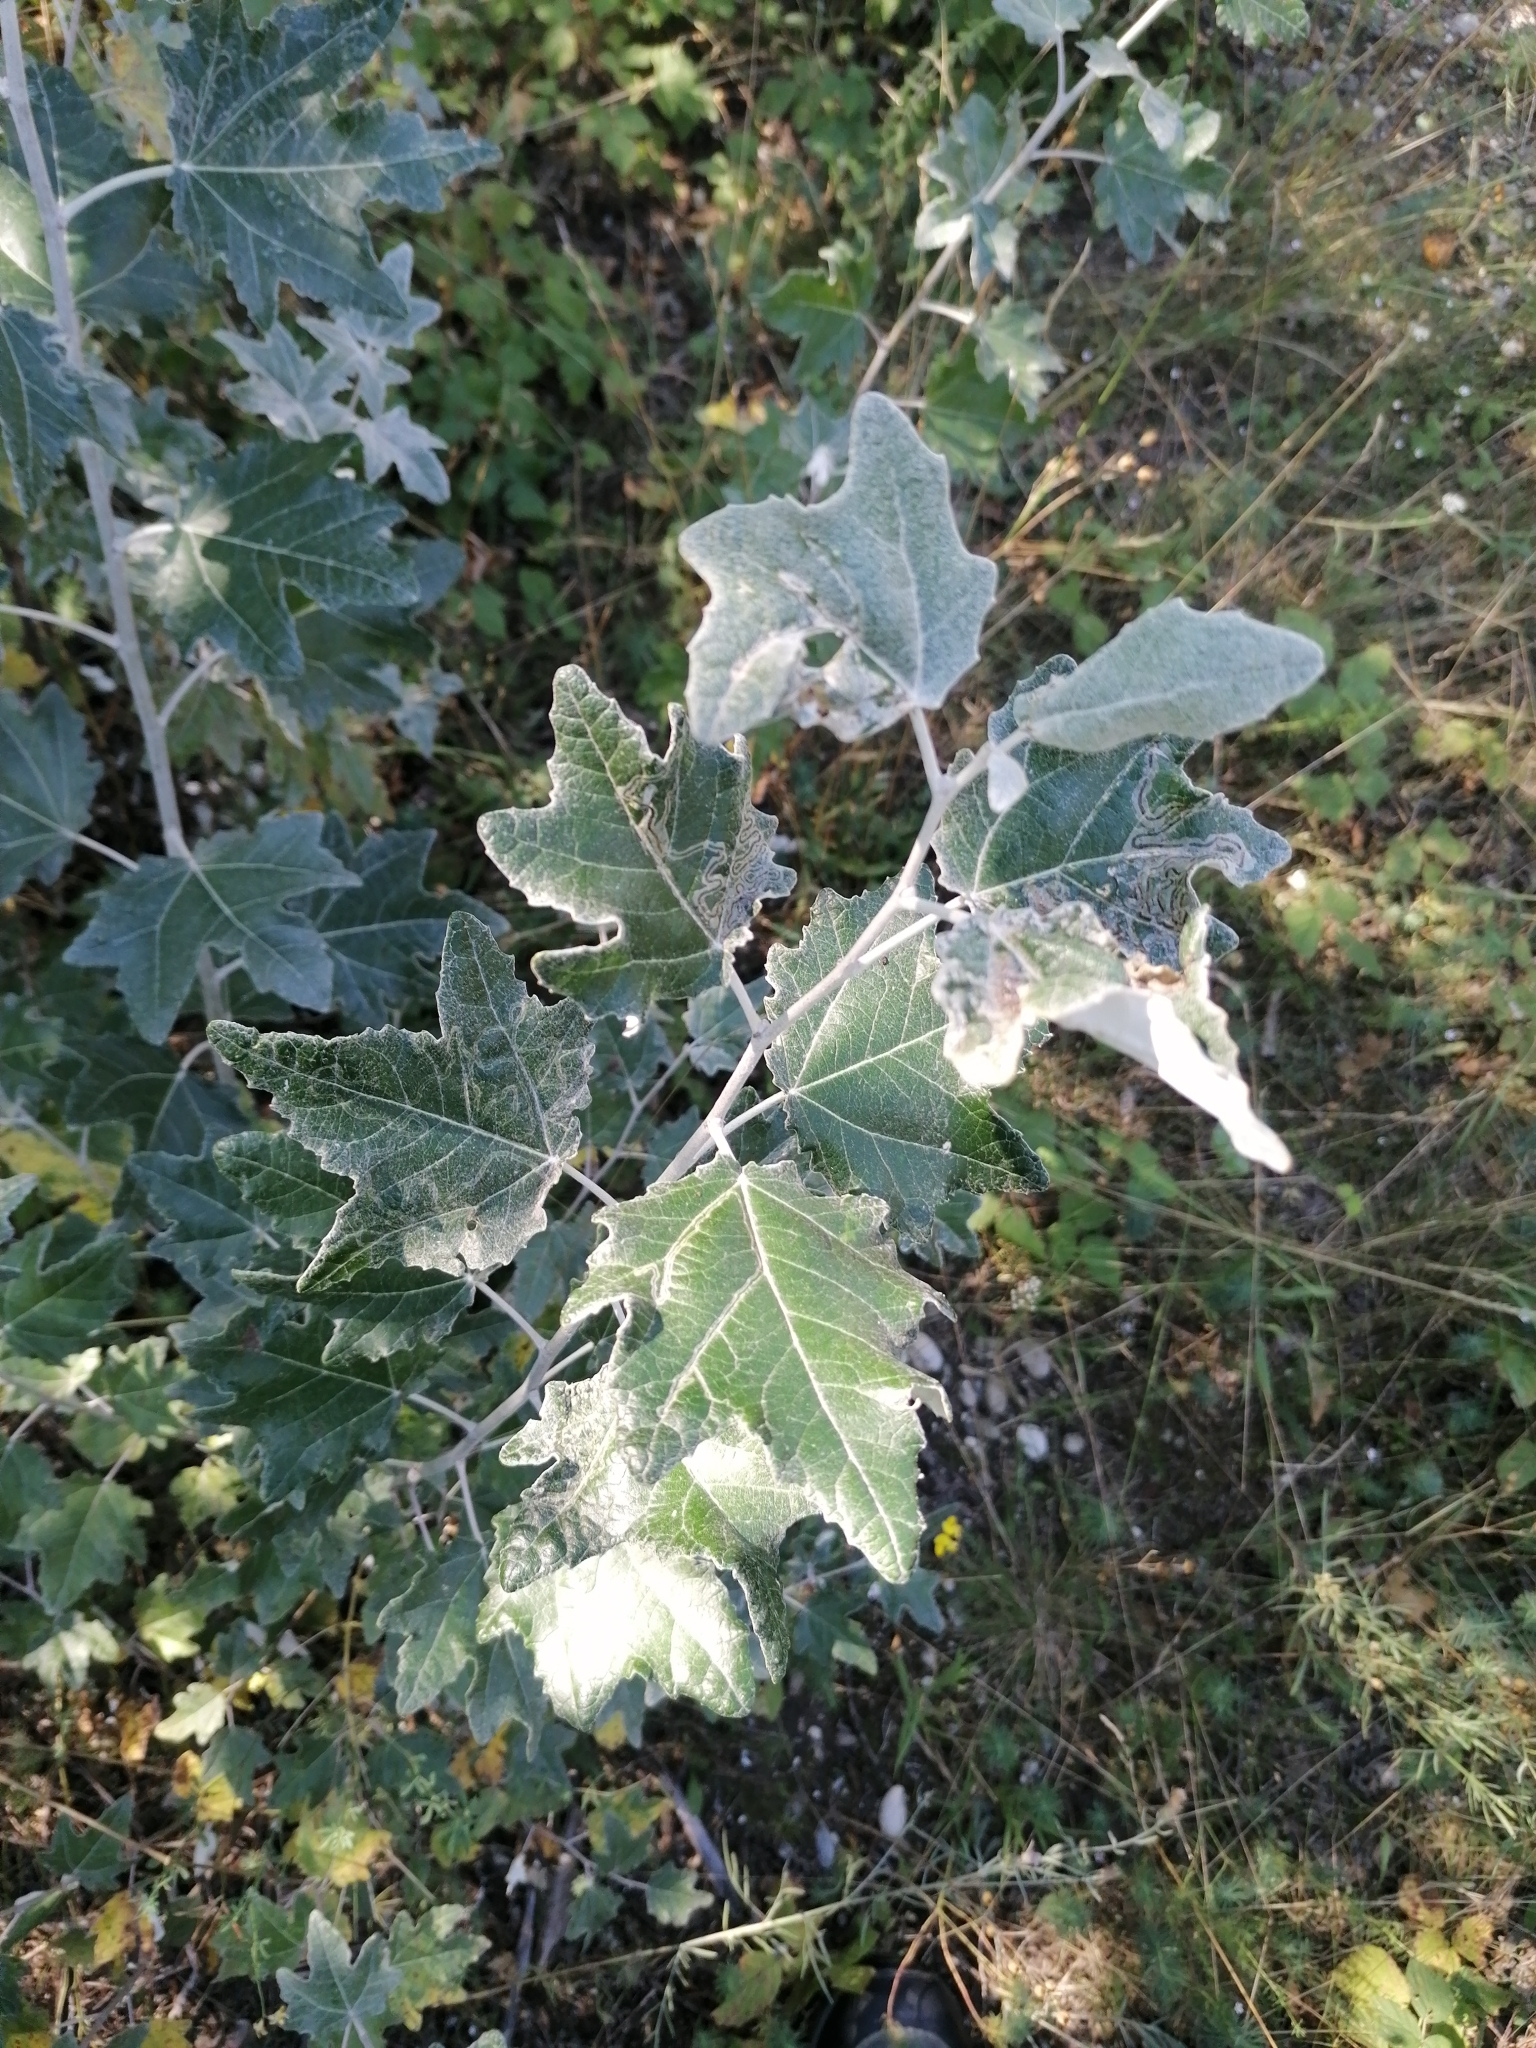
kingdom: Plantae
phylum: Tracheophyta
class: Magnoliopsida
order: Malpighiales
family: Salicaceae
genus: Populus
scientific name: Populus alba
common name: White poplar
